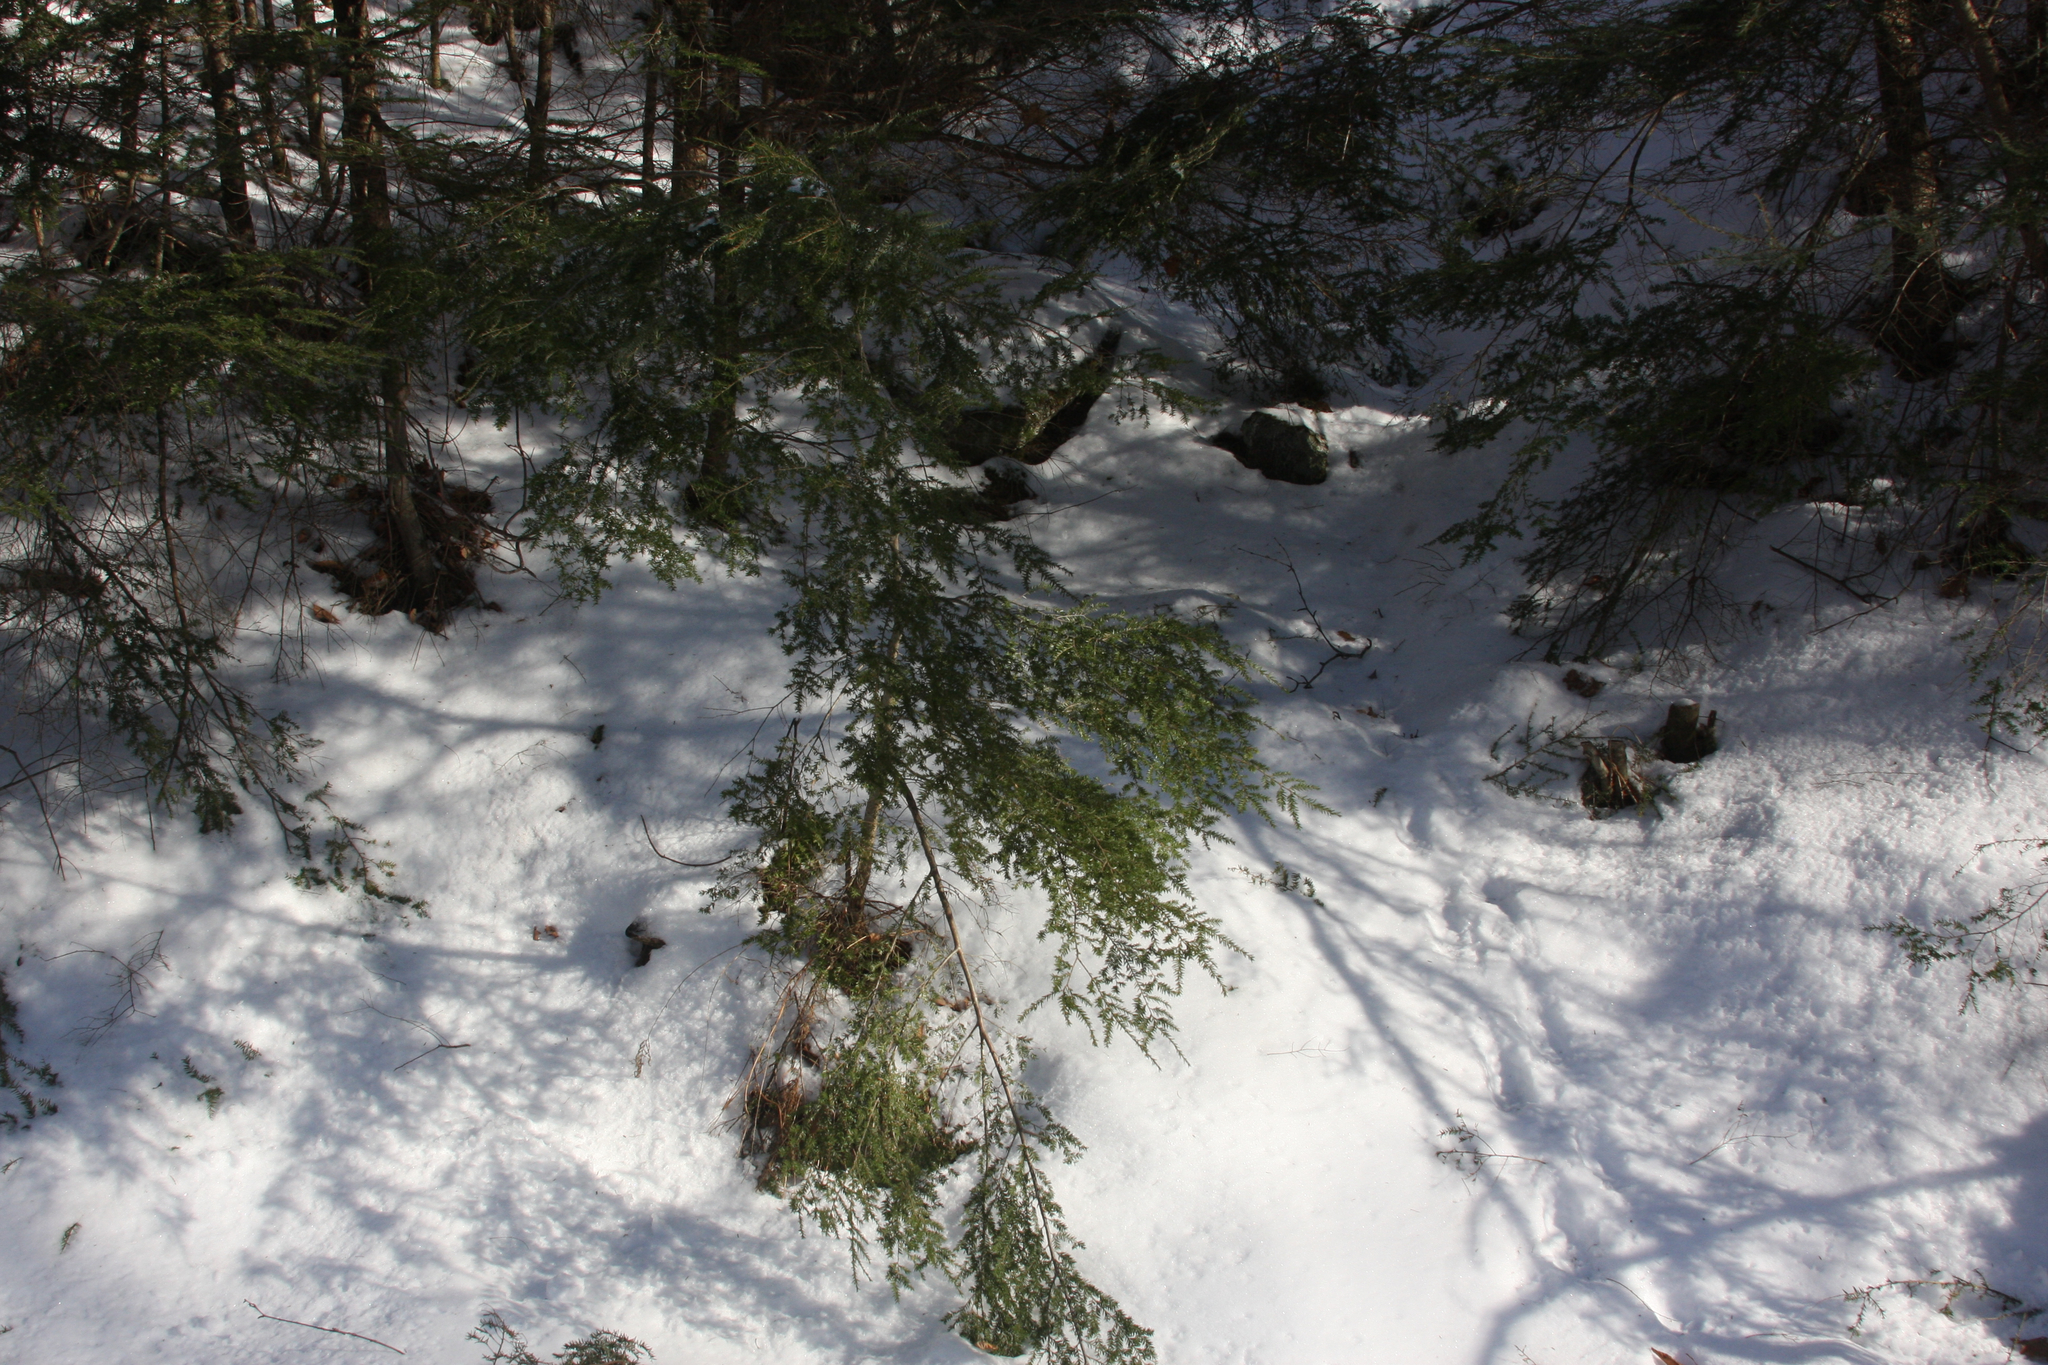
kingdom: Plantae
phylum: Tracheophyta
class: Pinopsida
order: Pinales
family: Pinaceae
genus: Tsuga
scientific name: Tsuga canadensis
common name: Eastern hemlock
